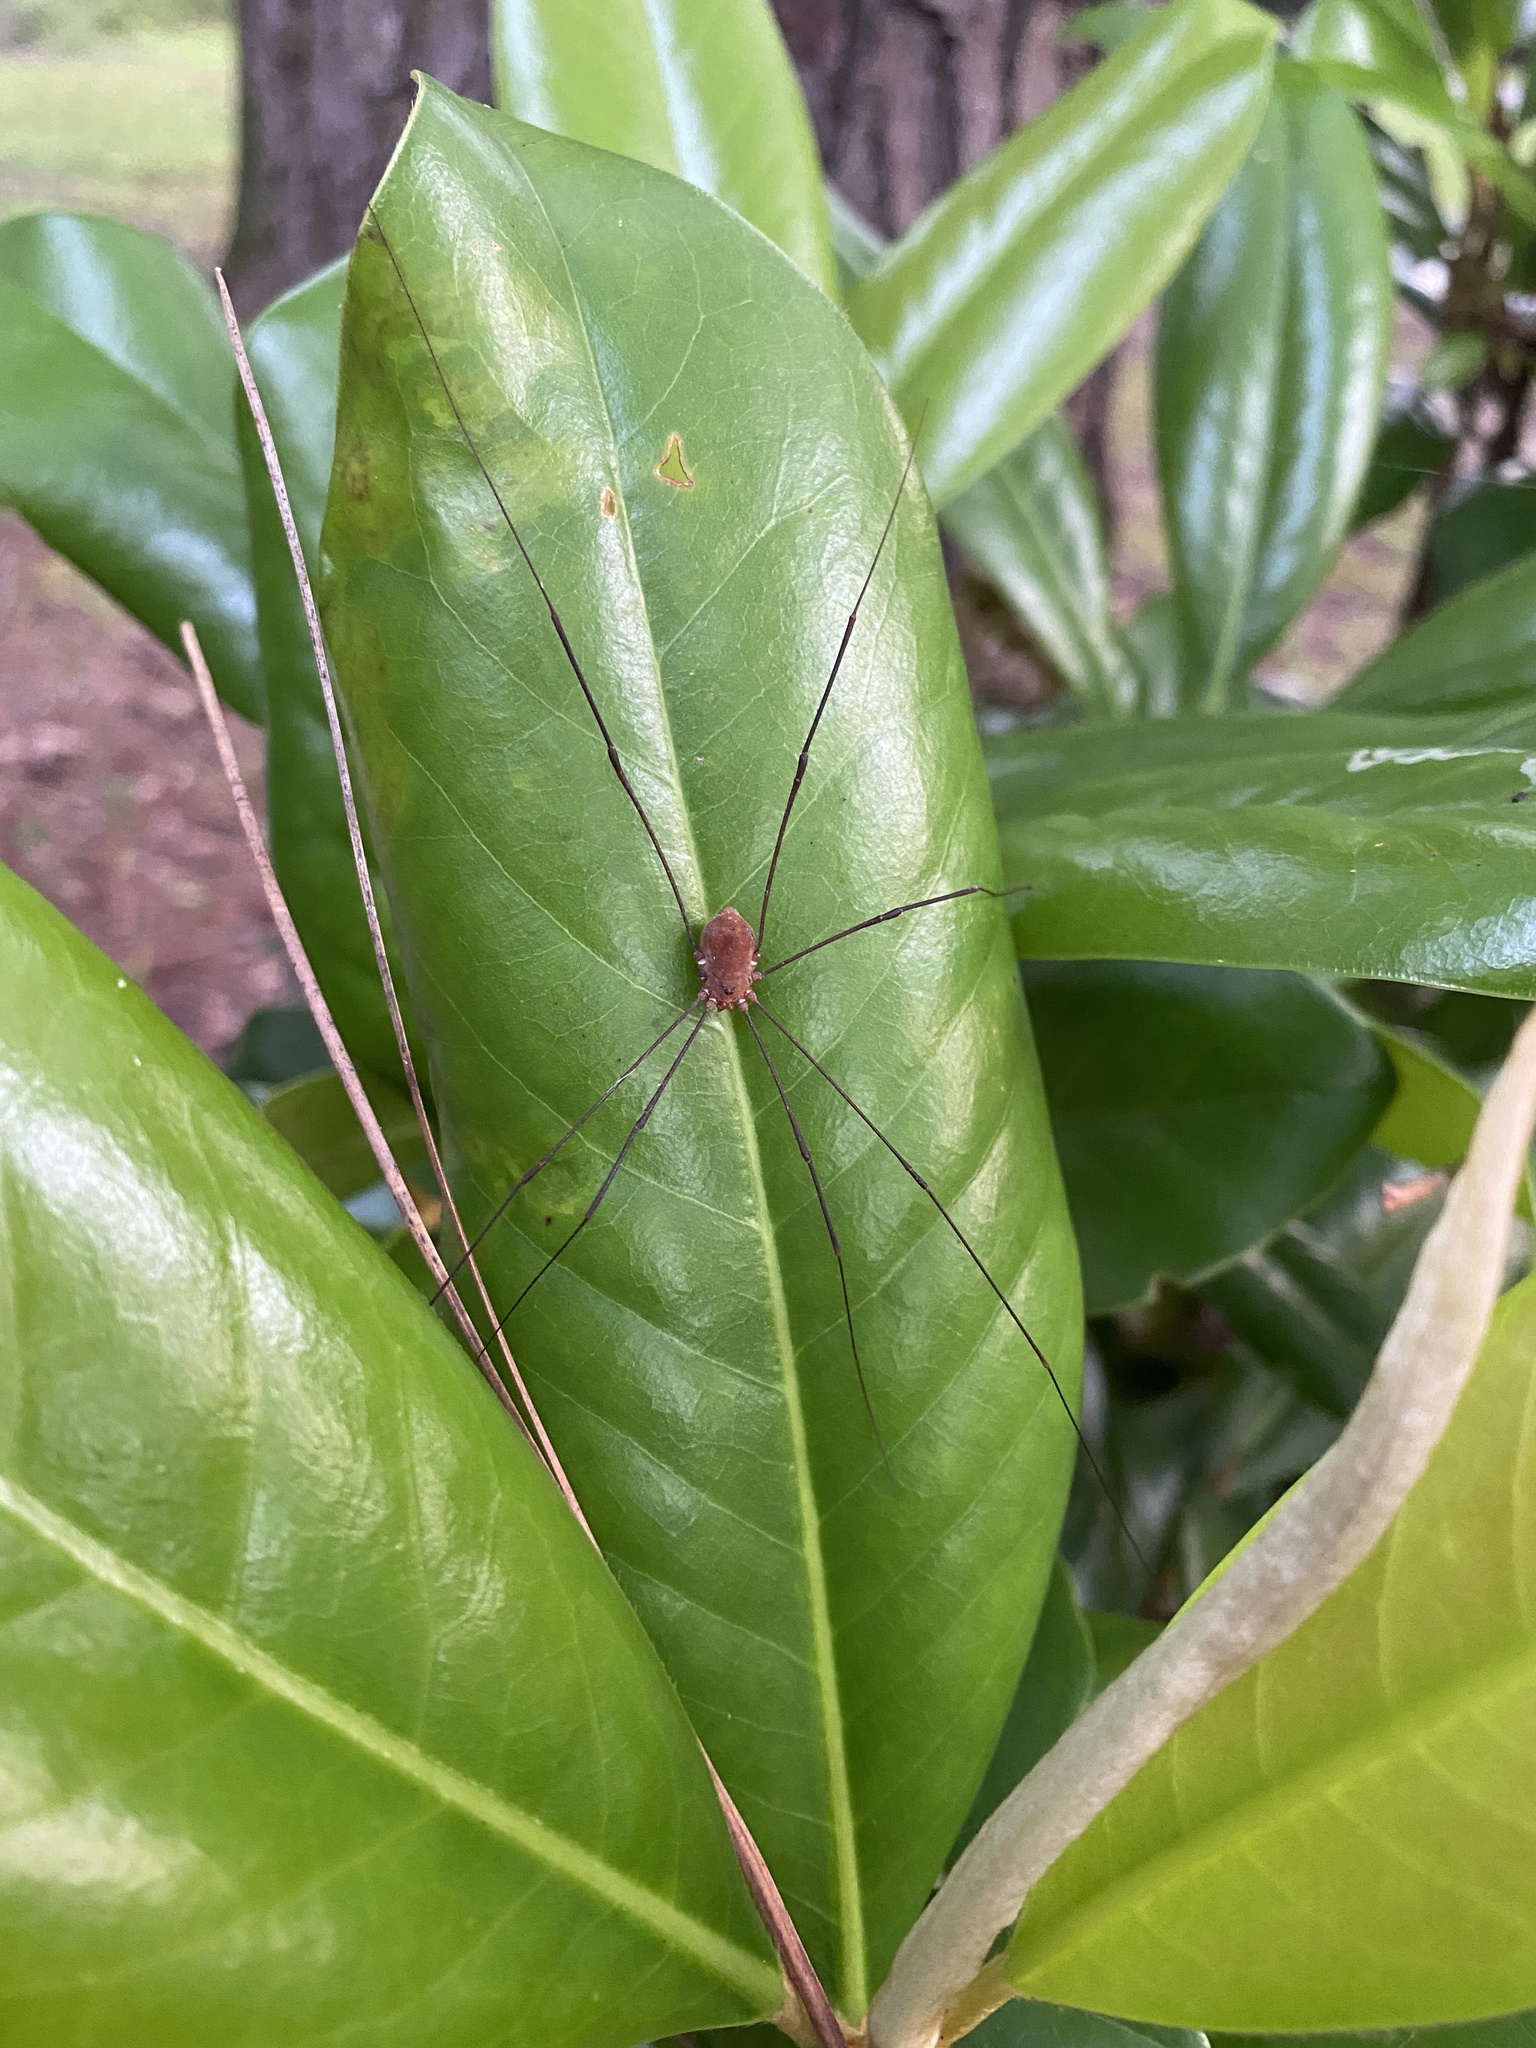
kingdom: Animalia
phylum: Arthropoda
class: Arachnida
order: Opiliones
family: Sclerosomatidae
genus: Leiobunum
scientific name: Leiobunum uxorium
